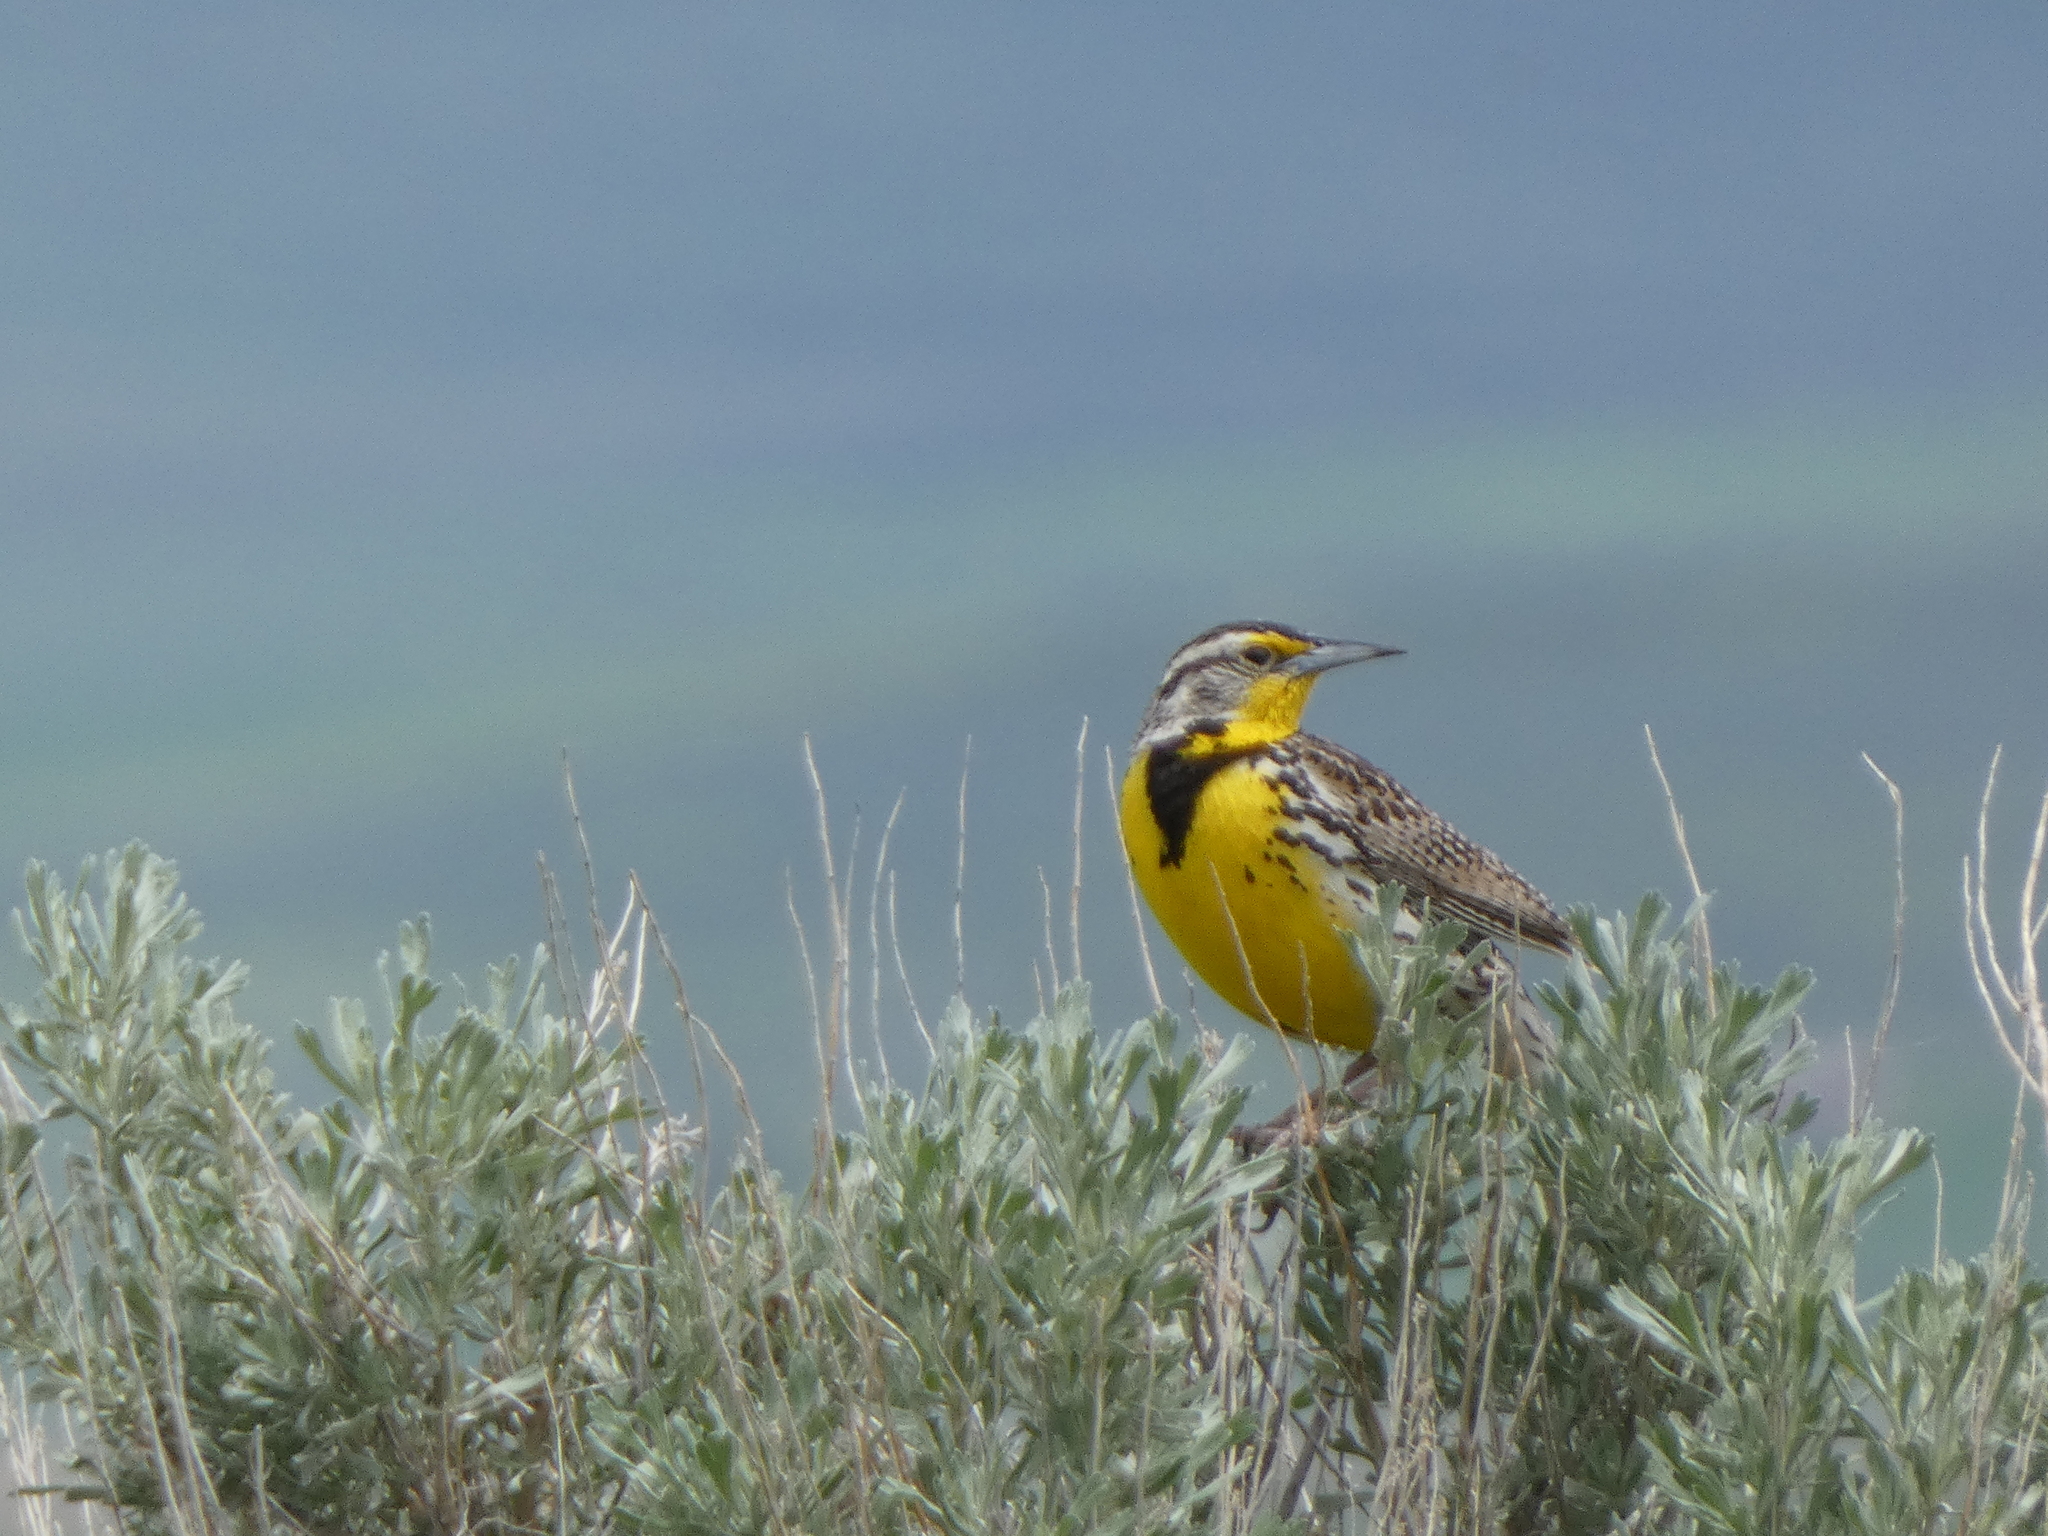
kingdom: Animalia
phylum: Chordata
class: Aves
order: Passeriformes
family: Icteridae
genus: Sturnella
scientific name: Sturnella neglecta
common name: Western meadowlark
